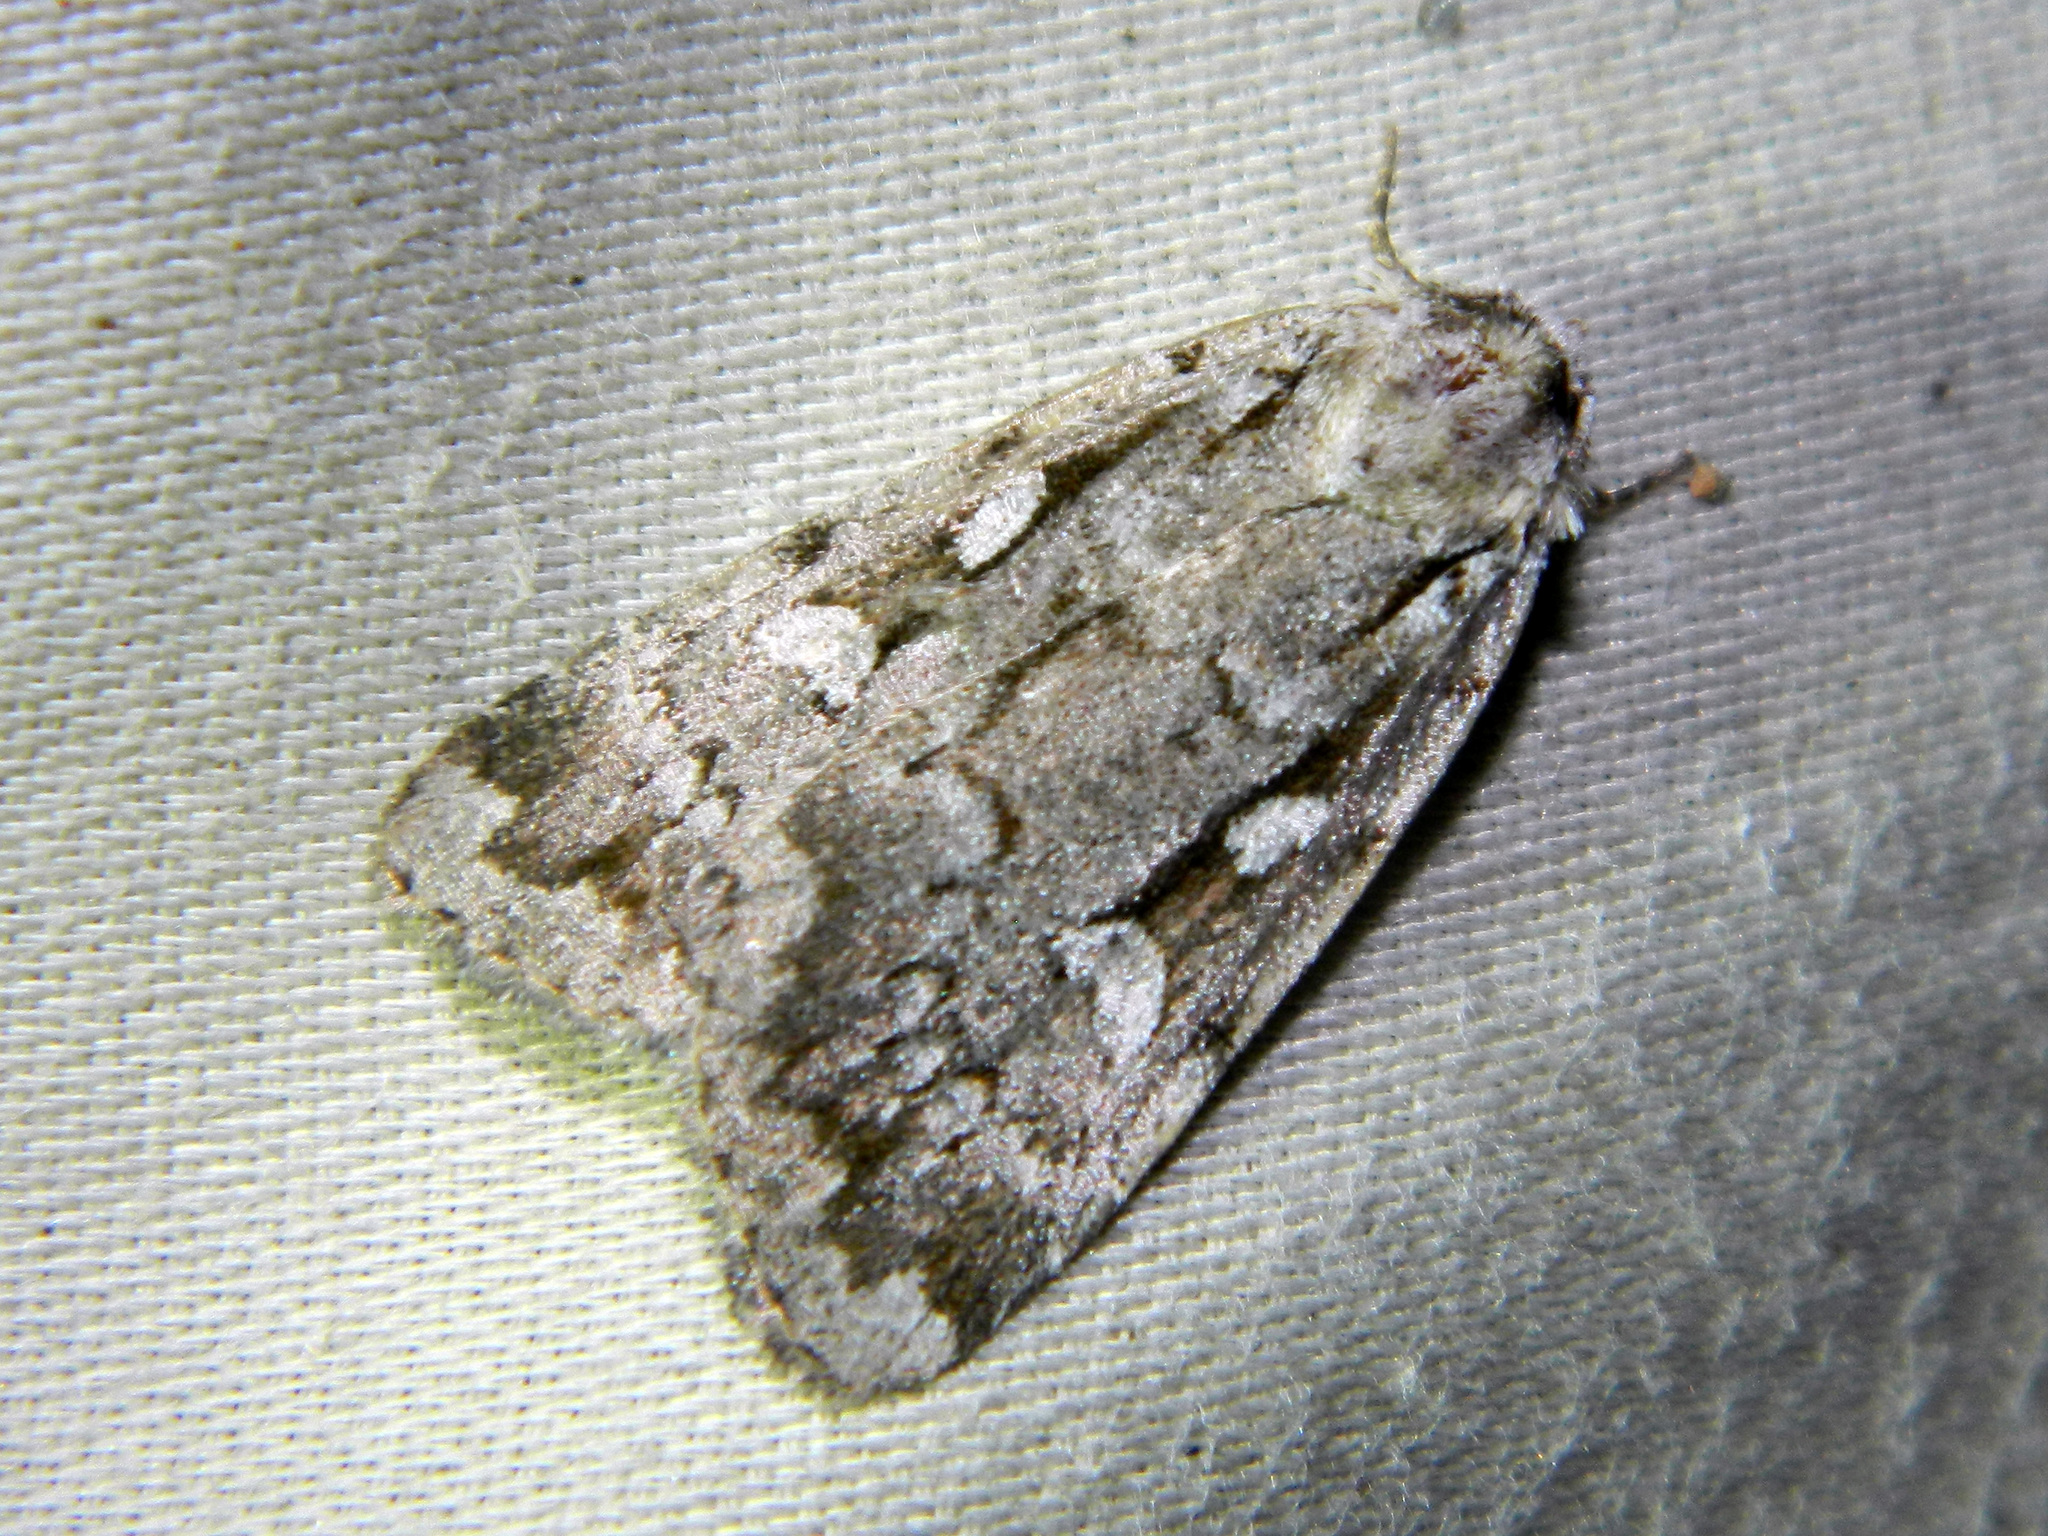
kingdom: Animalia
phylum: Arthropoda
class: Insecta
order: Lepidoptera
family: Noctuidae
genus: Xestia
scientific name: Xestia badicollis
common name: Northern variable dart
